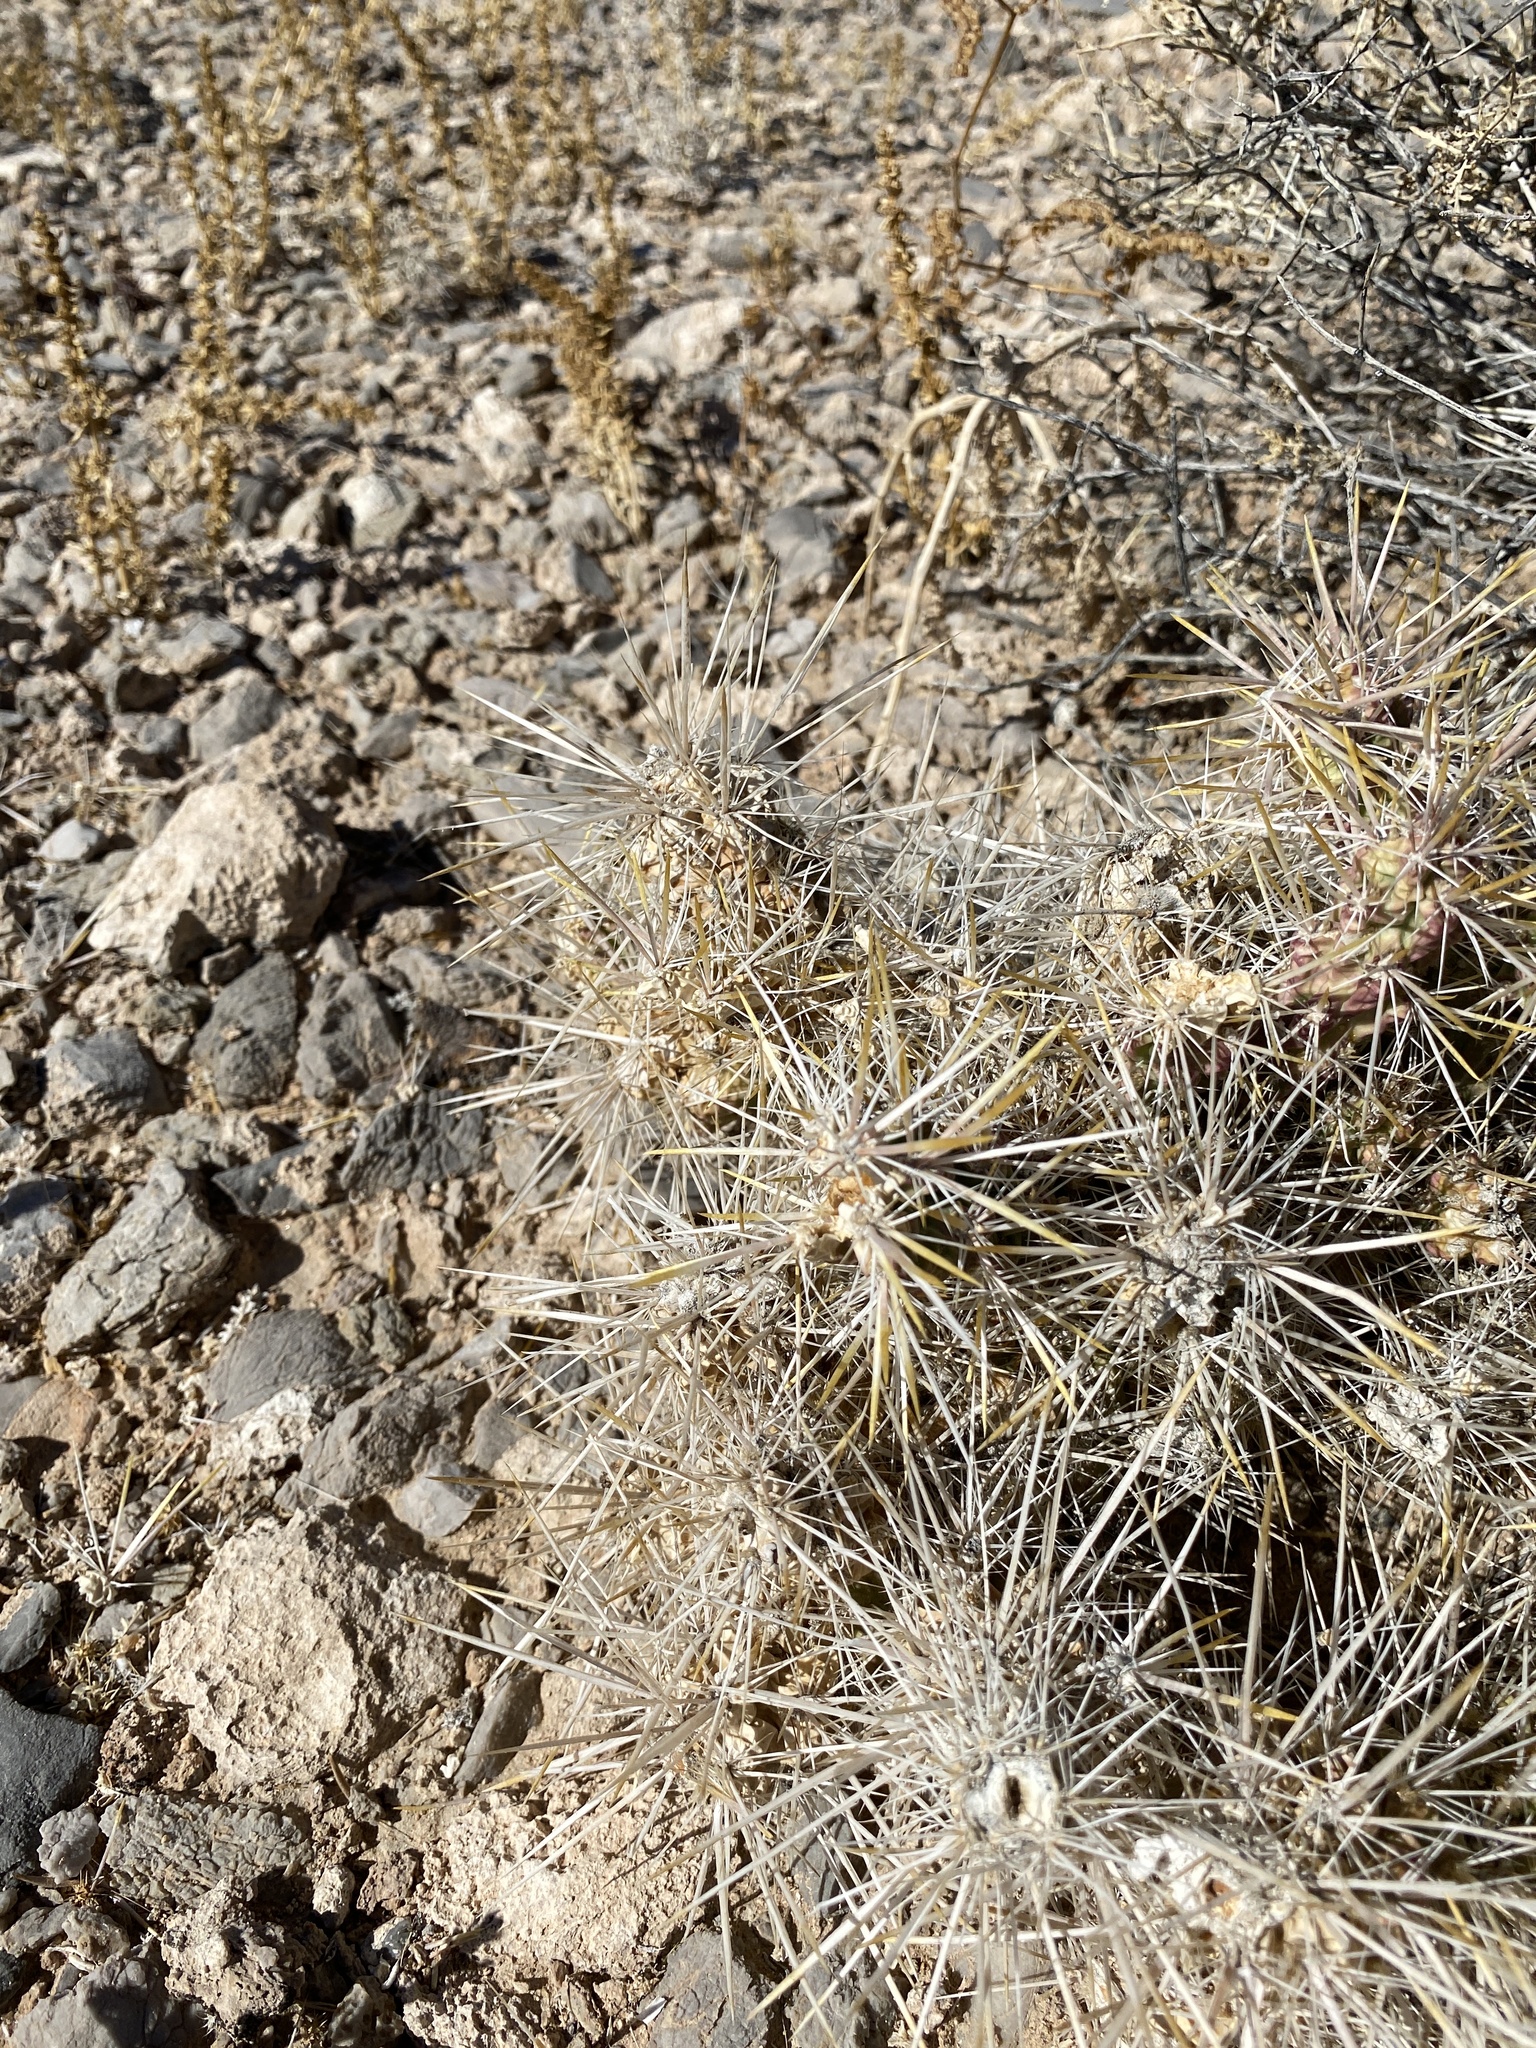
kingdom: Plantae
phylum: Tracheophyta
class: Magnoliopsida
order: Caryophyllales
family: Cactaceae
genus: Cylindropuntia
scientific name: Cylindropuntia echinocarpa
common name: Ground cholla
